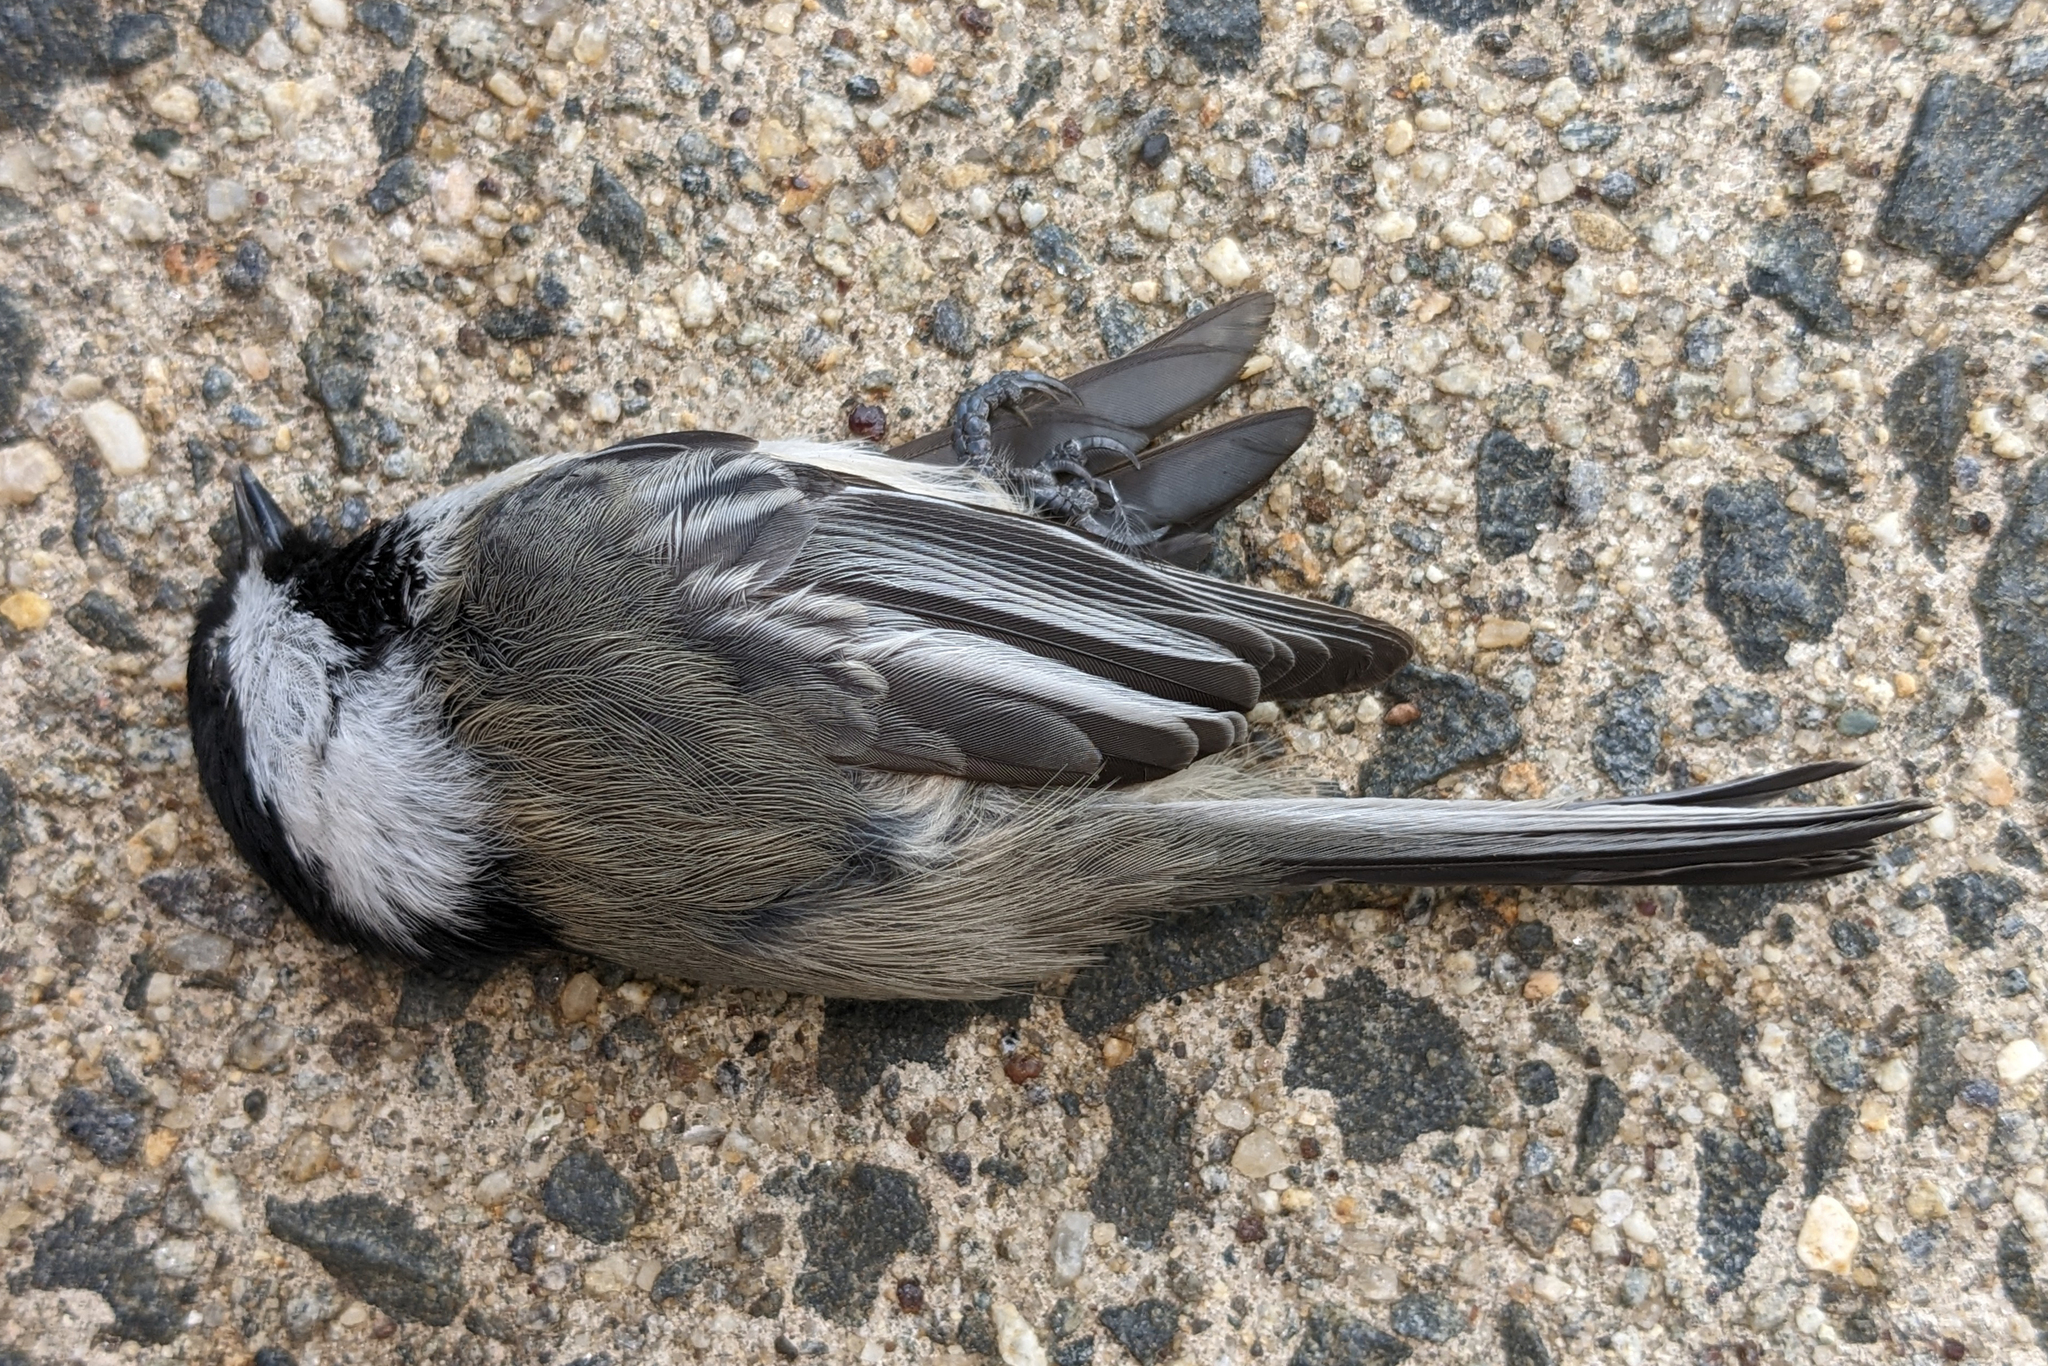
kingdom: Animalia
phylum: Chordata
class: Aves
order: Passeriformes
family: Paridae
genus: Poecile
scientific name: Poecile atricapillus
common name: Black-capped chickadee
